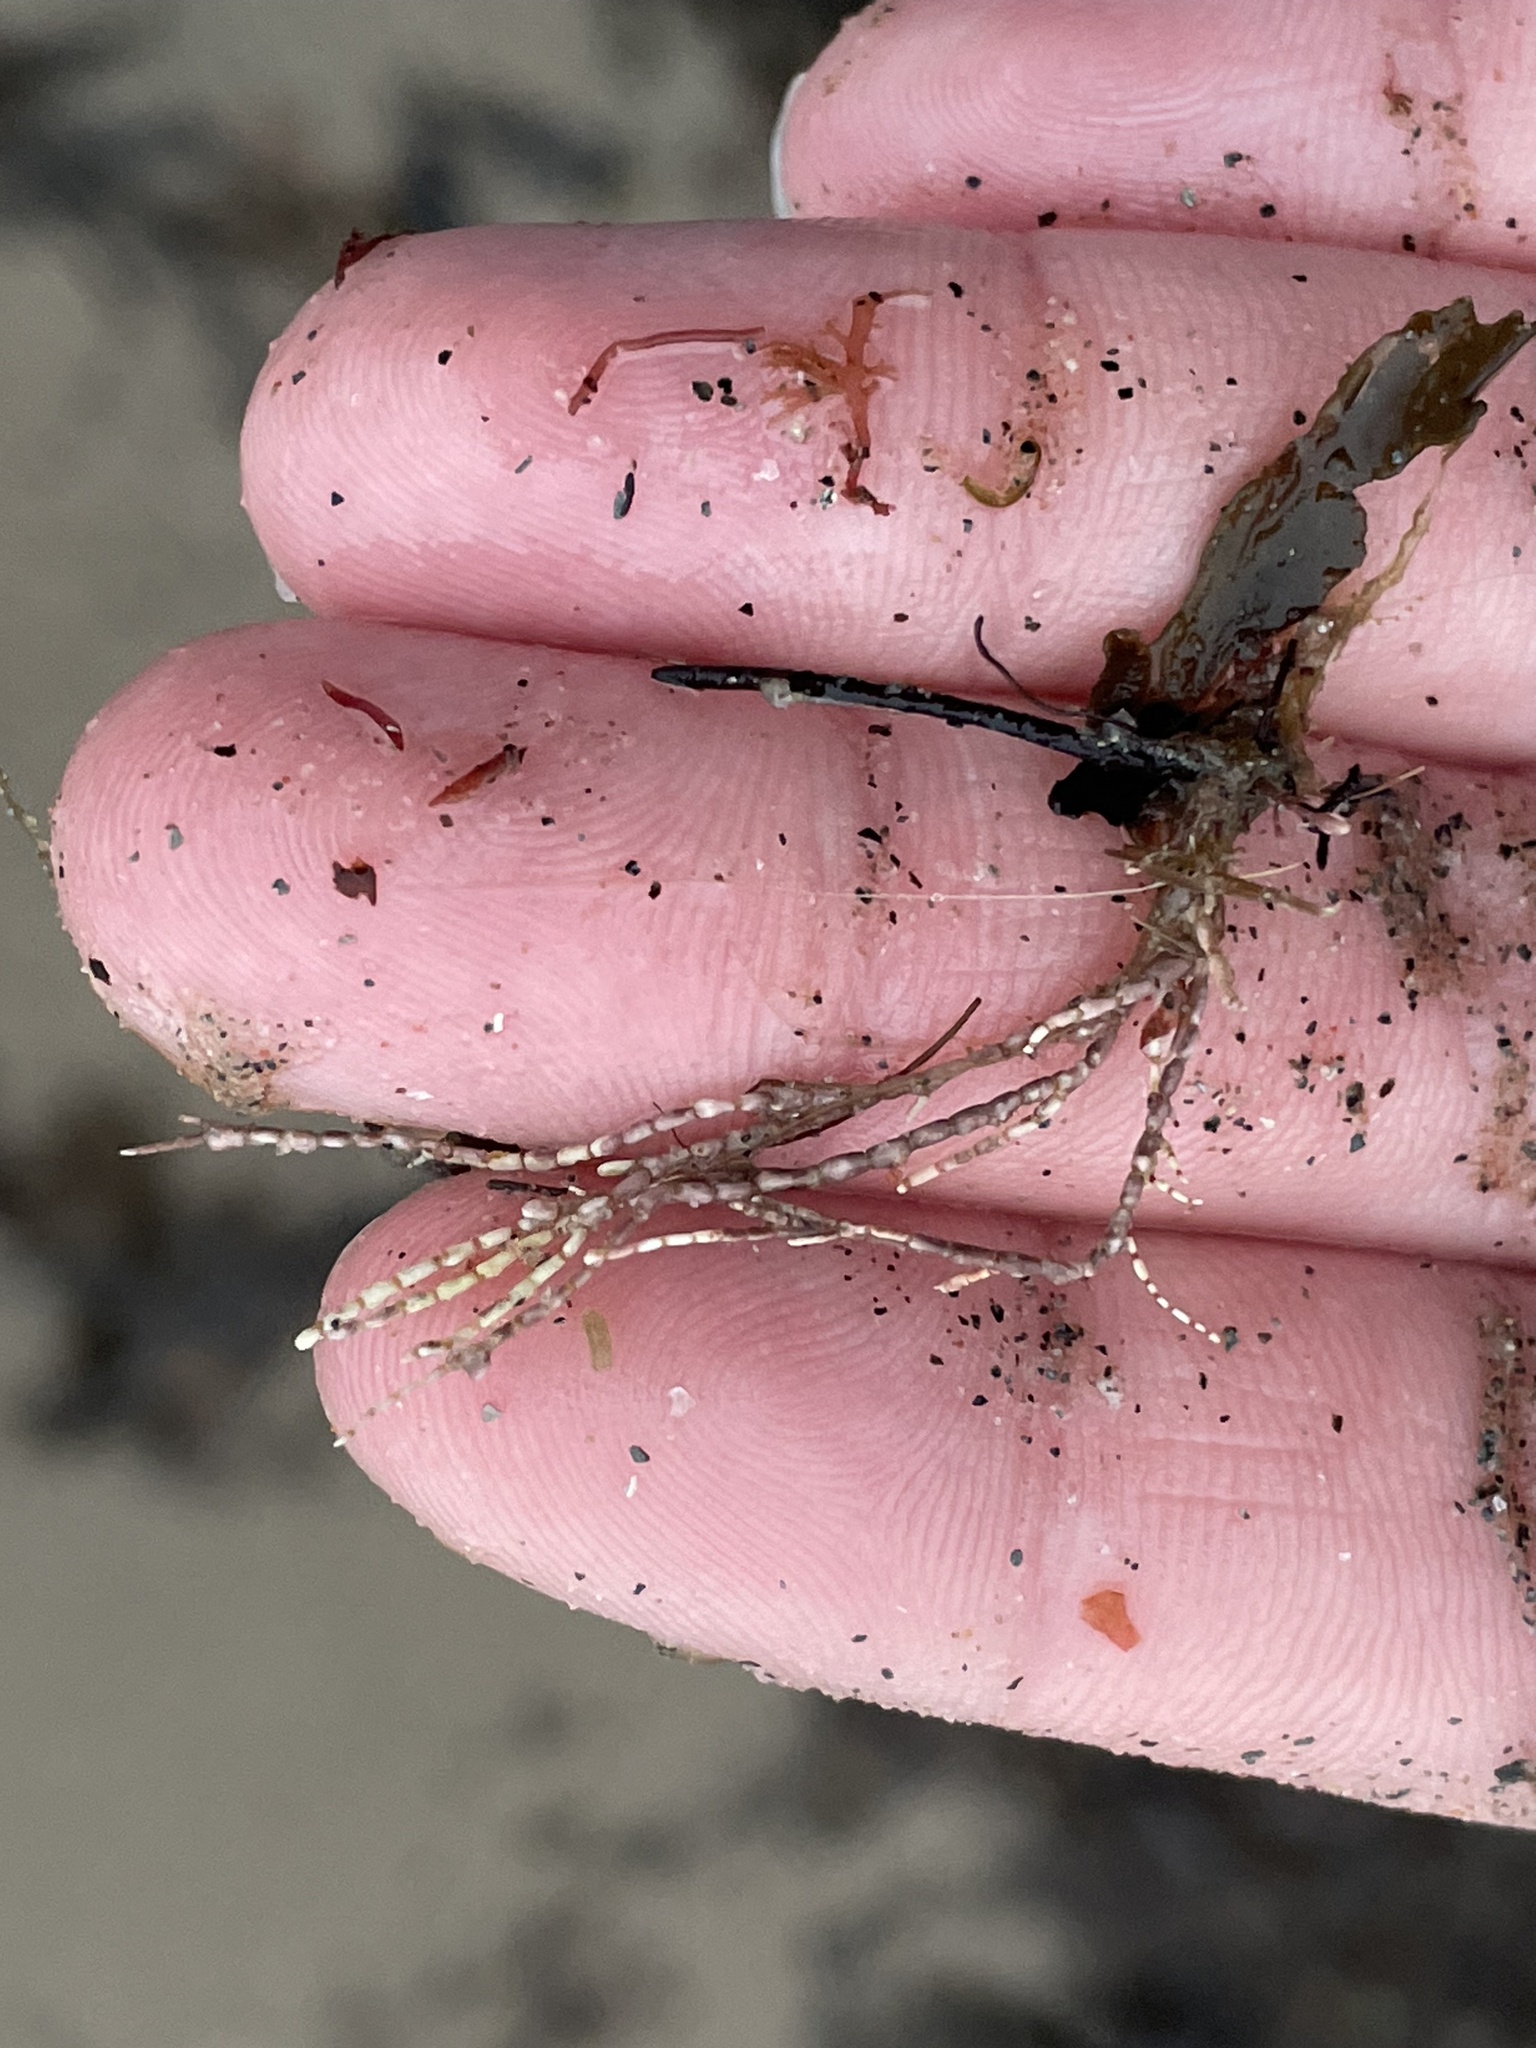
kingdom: Plantae
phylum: Rhodophyta
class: Florideophyceae
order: Corallinales
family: Corallinaceae
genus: Corallina
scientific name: Corallina officinalis
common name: Coral weed
